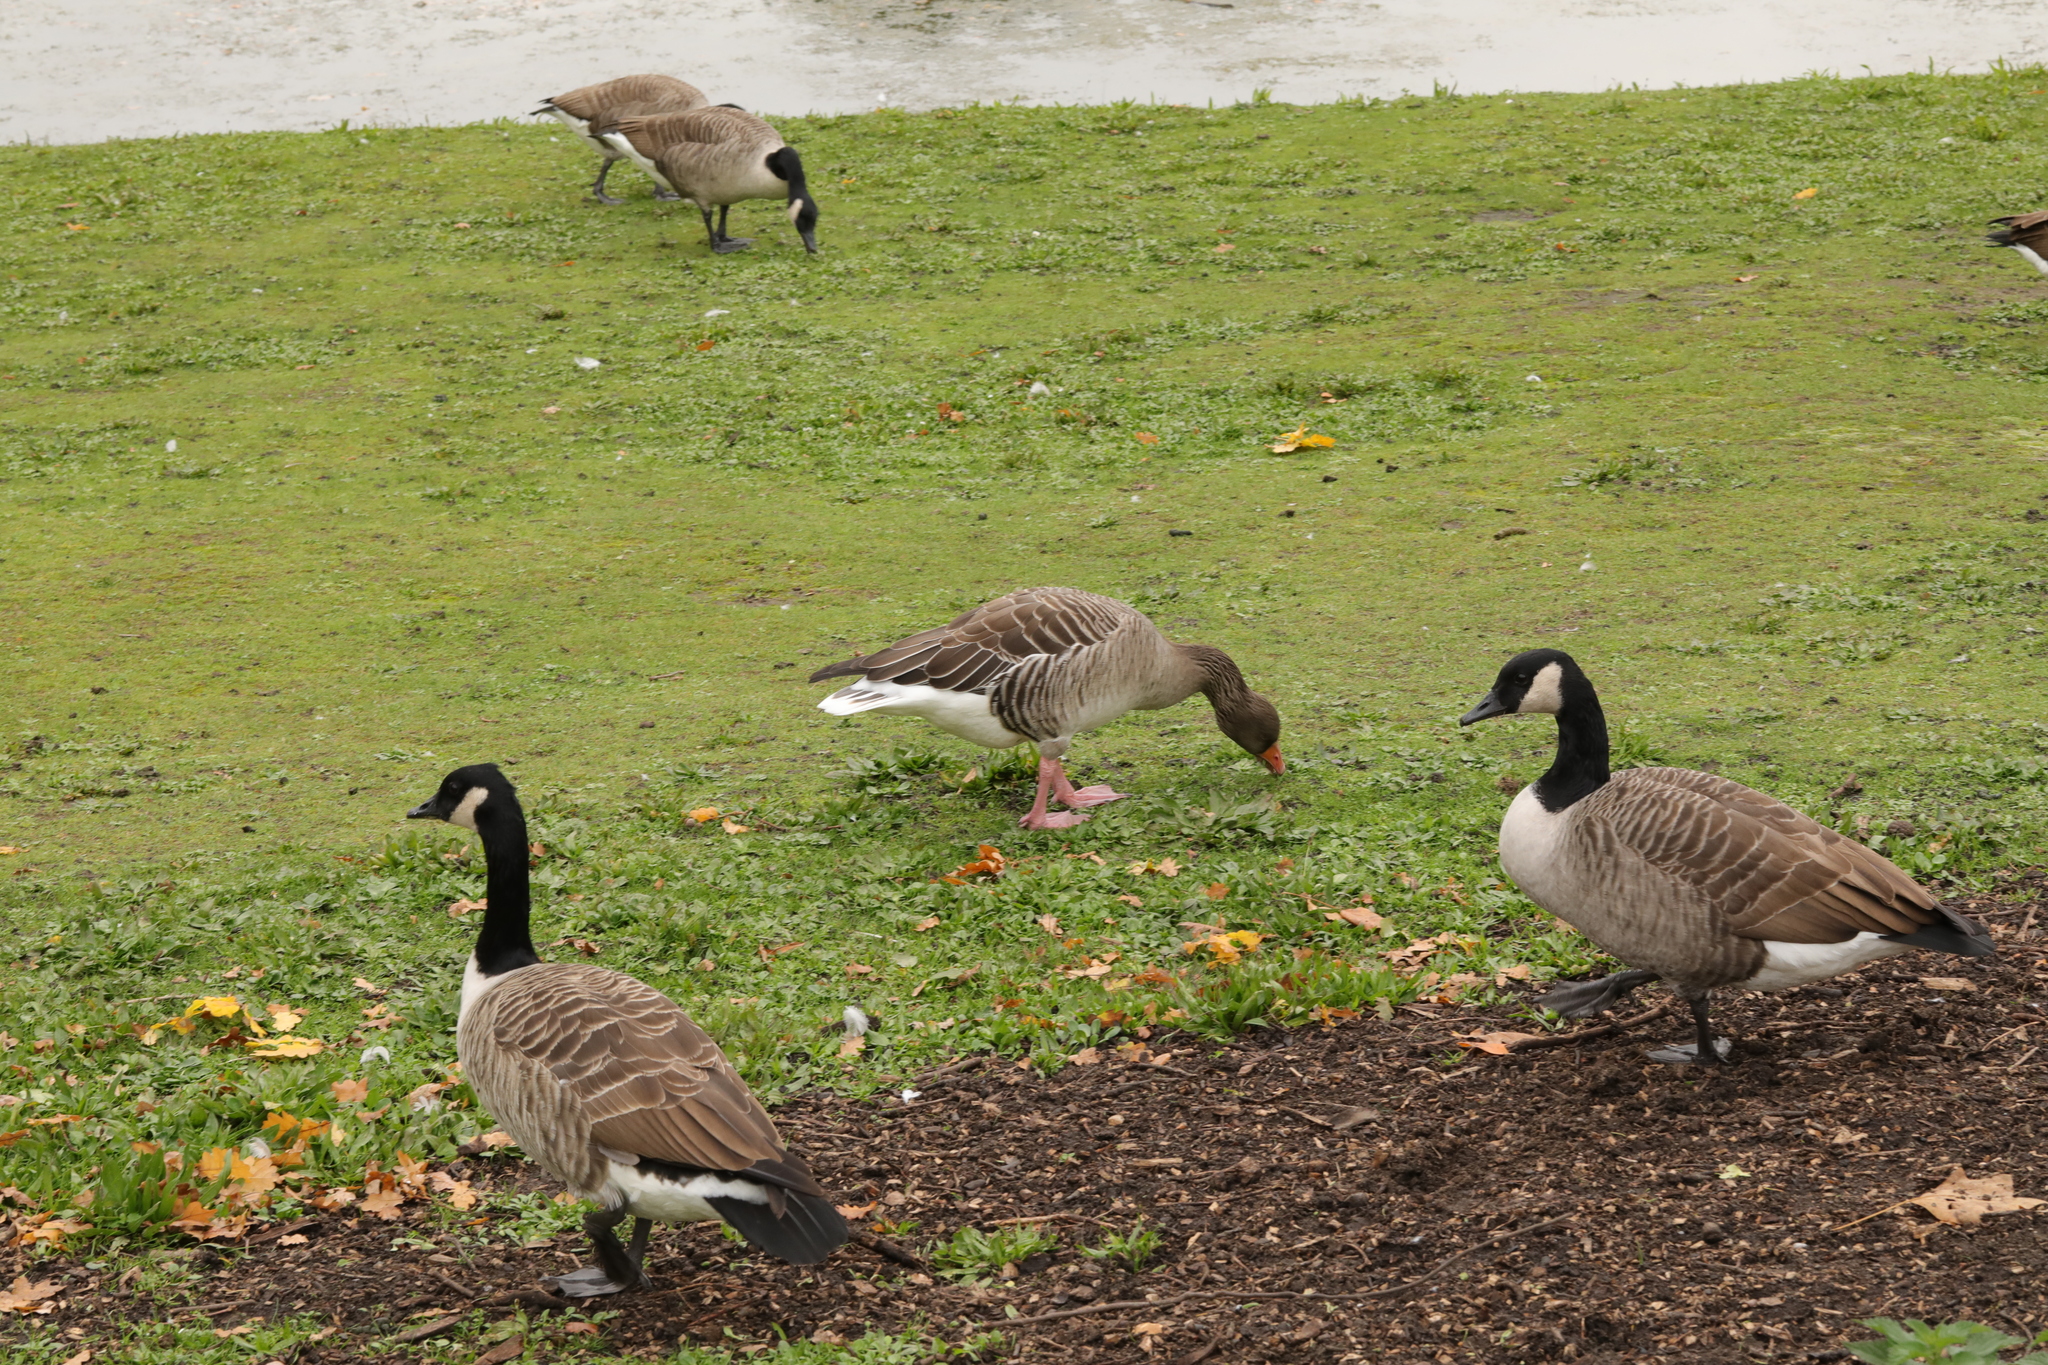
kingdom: Animalia
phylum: Chordata
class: Aves
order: Anseriformes
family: Anatidae
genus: Anser
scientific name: Anser anser
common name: Greylag goose
